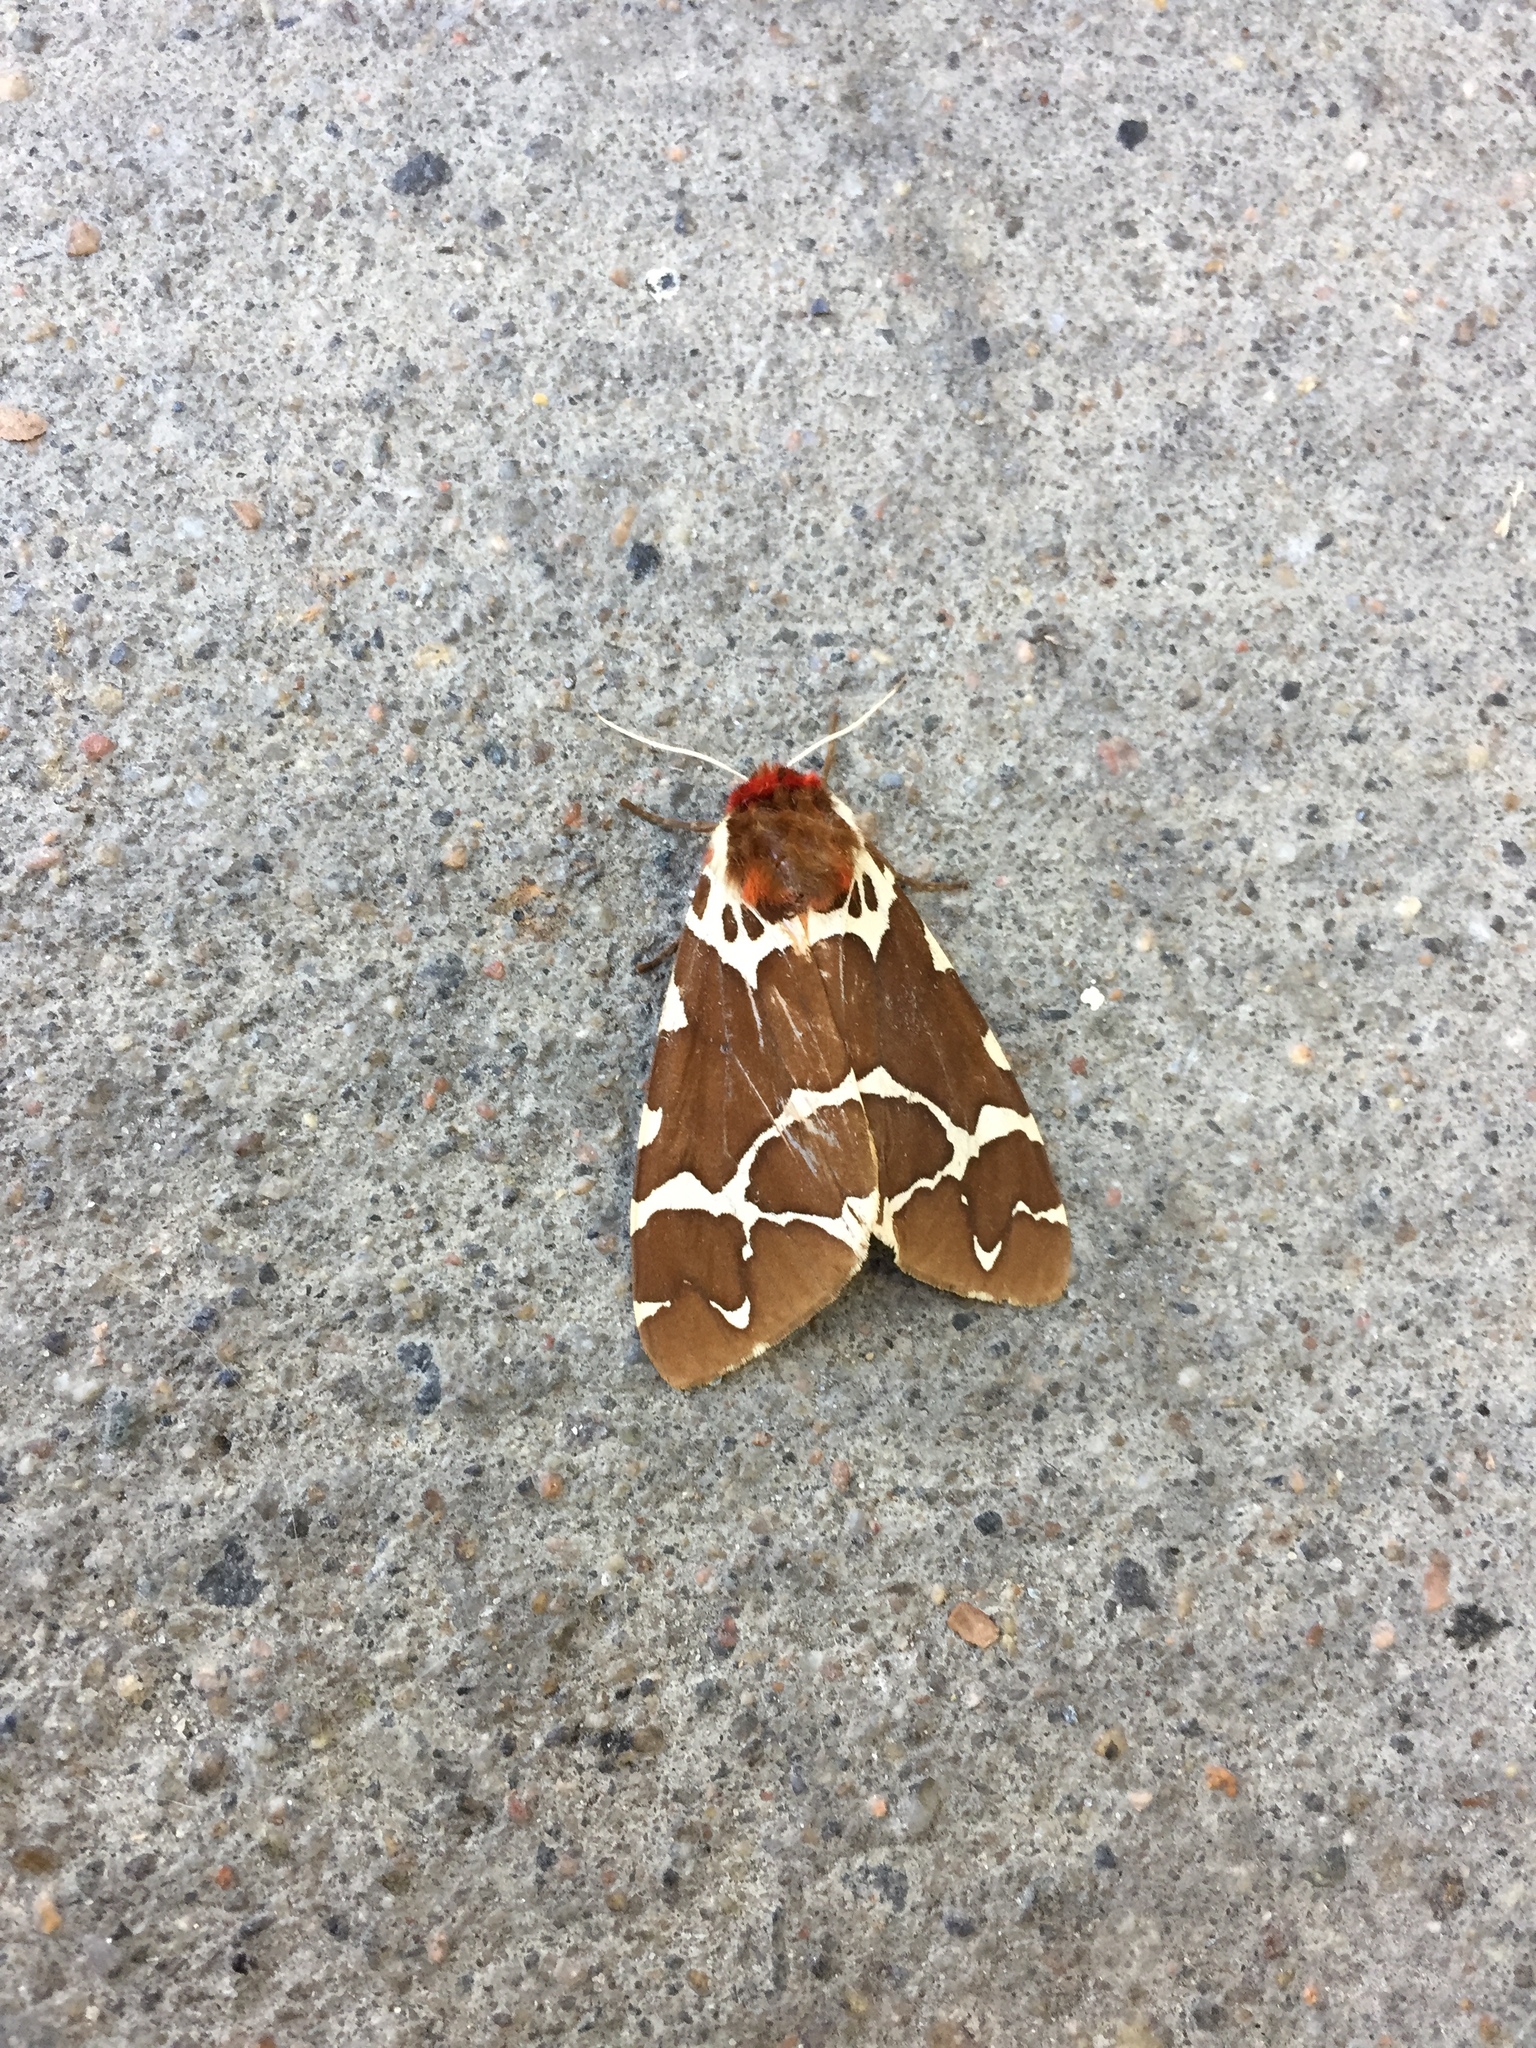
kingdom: Animalia
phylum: Arthropoda
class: Insecta
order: Lepidoptera
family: Erebidae
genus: Arctia
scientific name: Arctia caja
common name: Garden tiger
